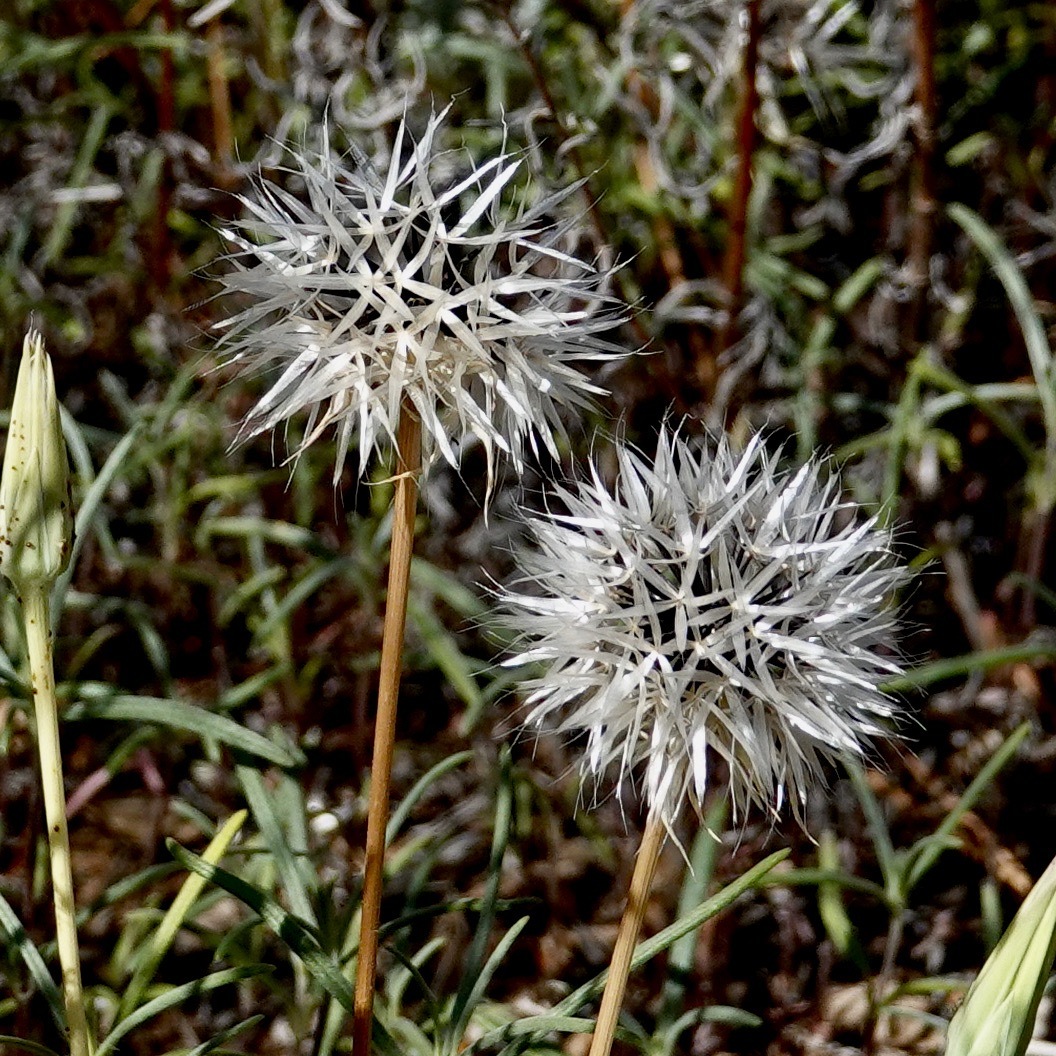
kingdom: Plantae
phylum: Tracheophyta
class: Magnoliopsida
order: Asterales
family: Asteraceae
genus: Microseris
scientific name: Microseris lindleyi
